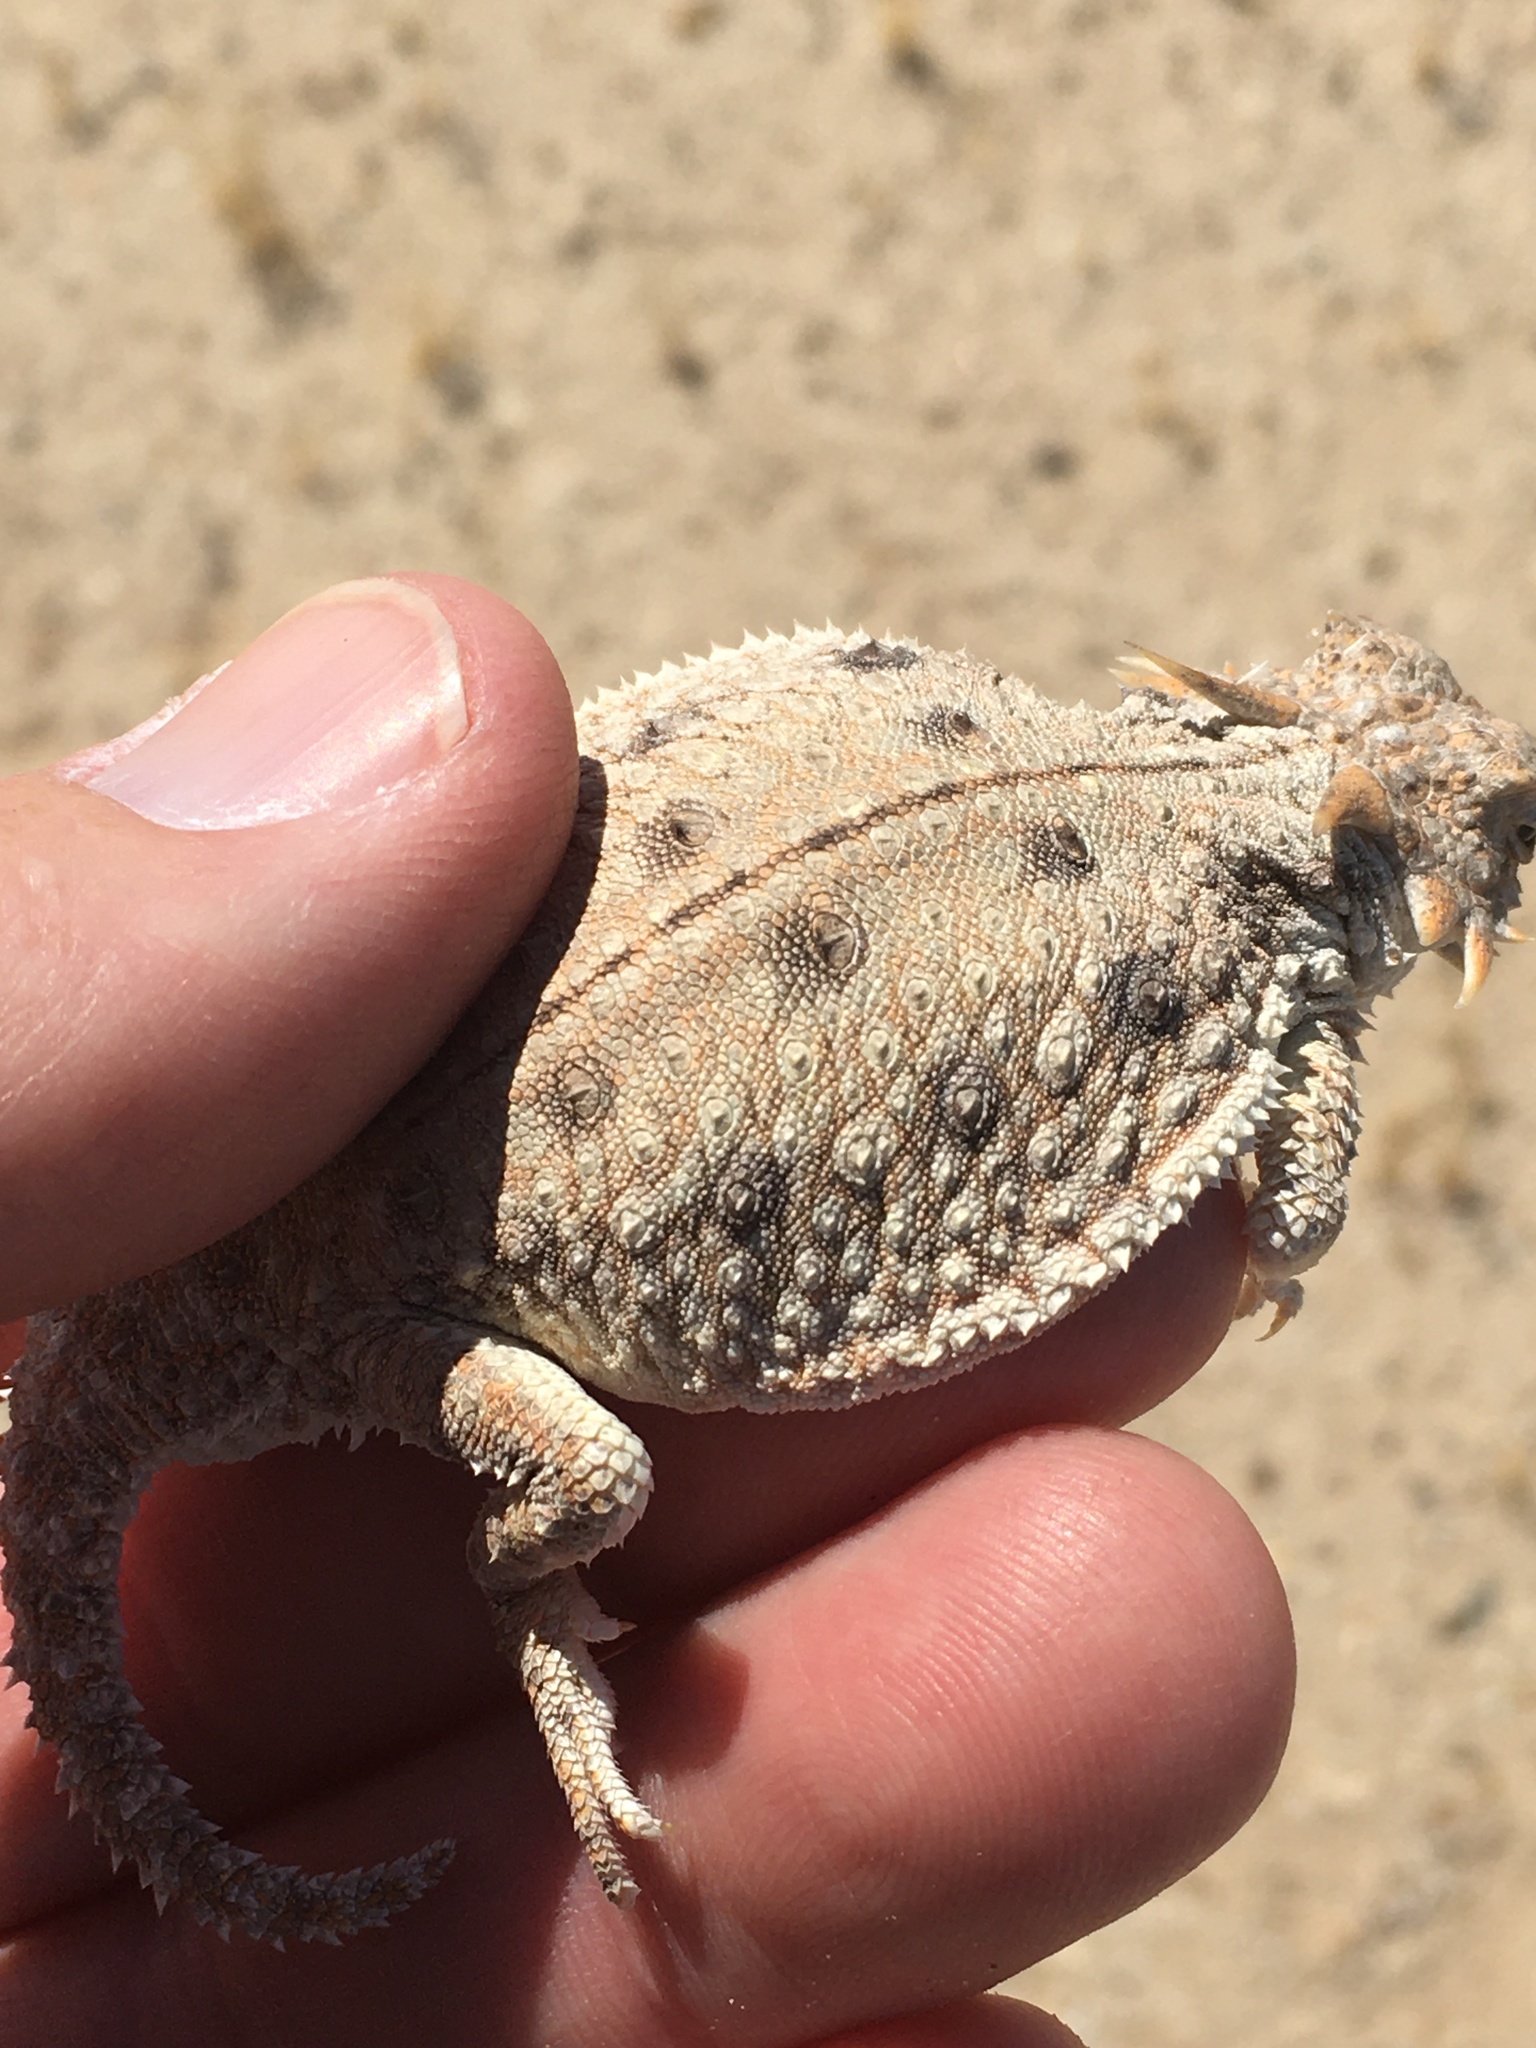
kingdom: Animalia
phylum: Chordata
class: Squamata
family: Phrynosomatidae
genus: Phrynosoma
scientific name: Phrynosoma mcallii
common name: Flat-tailed horned lizard
